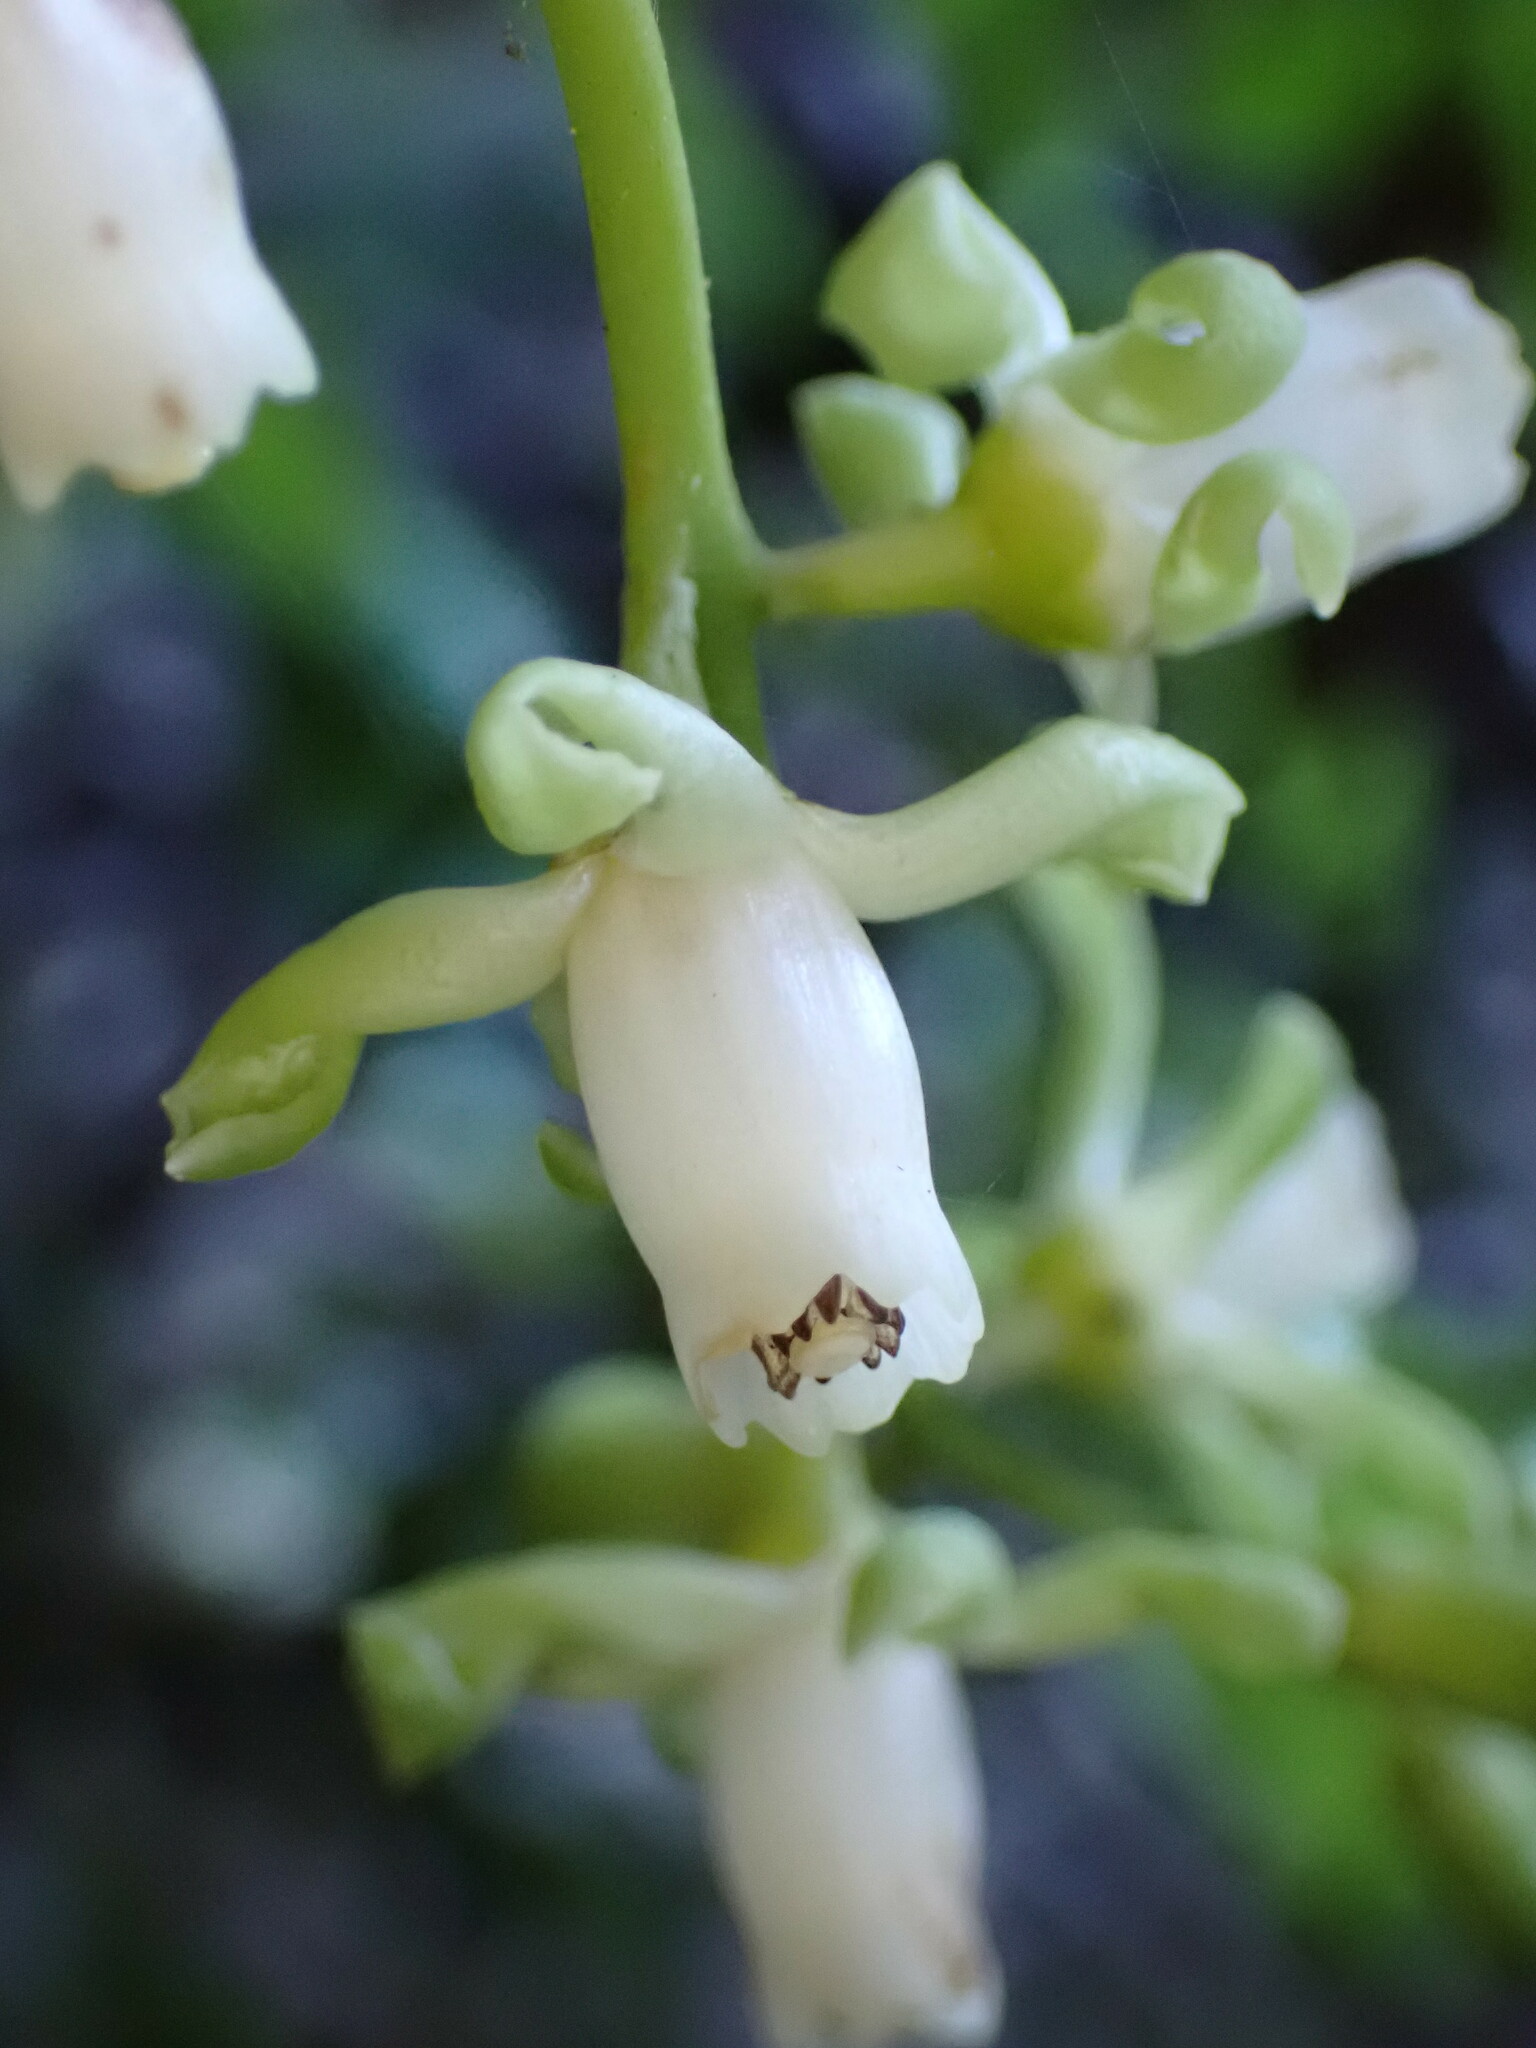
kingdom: Plantae
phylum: Tracheophyta
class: Magnoliopsida
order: Sapindales
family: Meliaceae
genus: Didymocheton
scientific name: Didymocheton spectabilis
